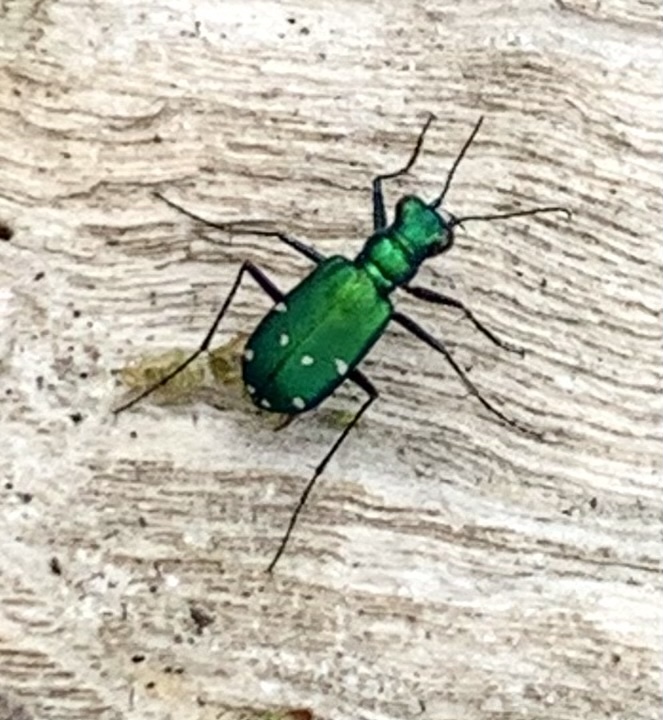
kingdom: Animalia
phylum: Arthropoda
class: Insecta
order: Coleoptera
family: Carabidae
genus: Cicindela
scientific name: Cicindela sexguttata
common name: Six-spotted tiger beetle
